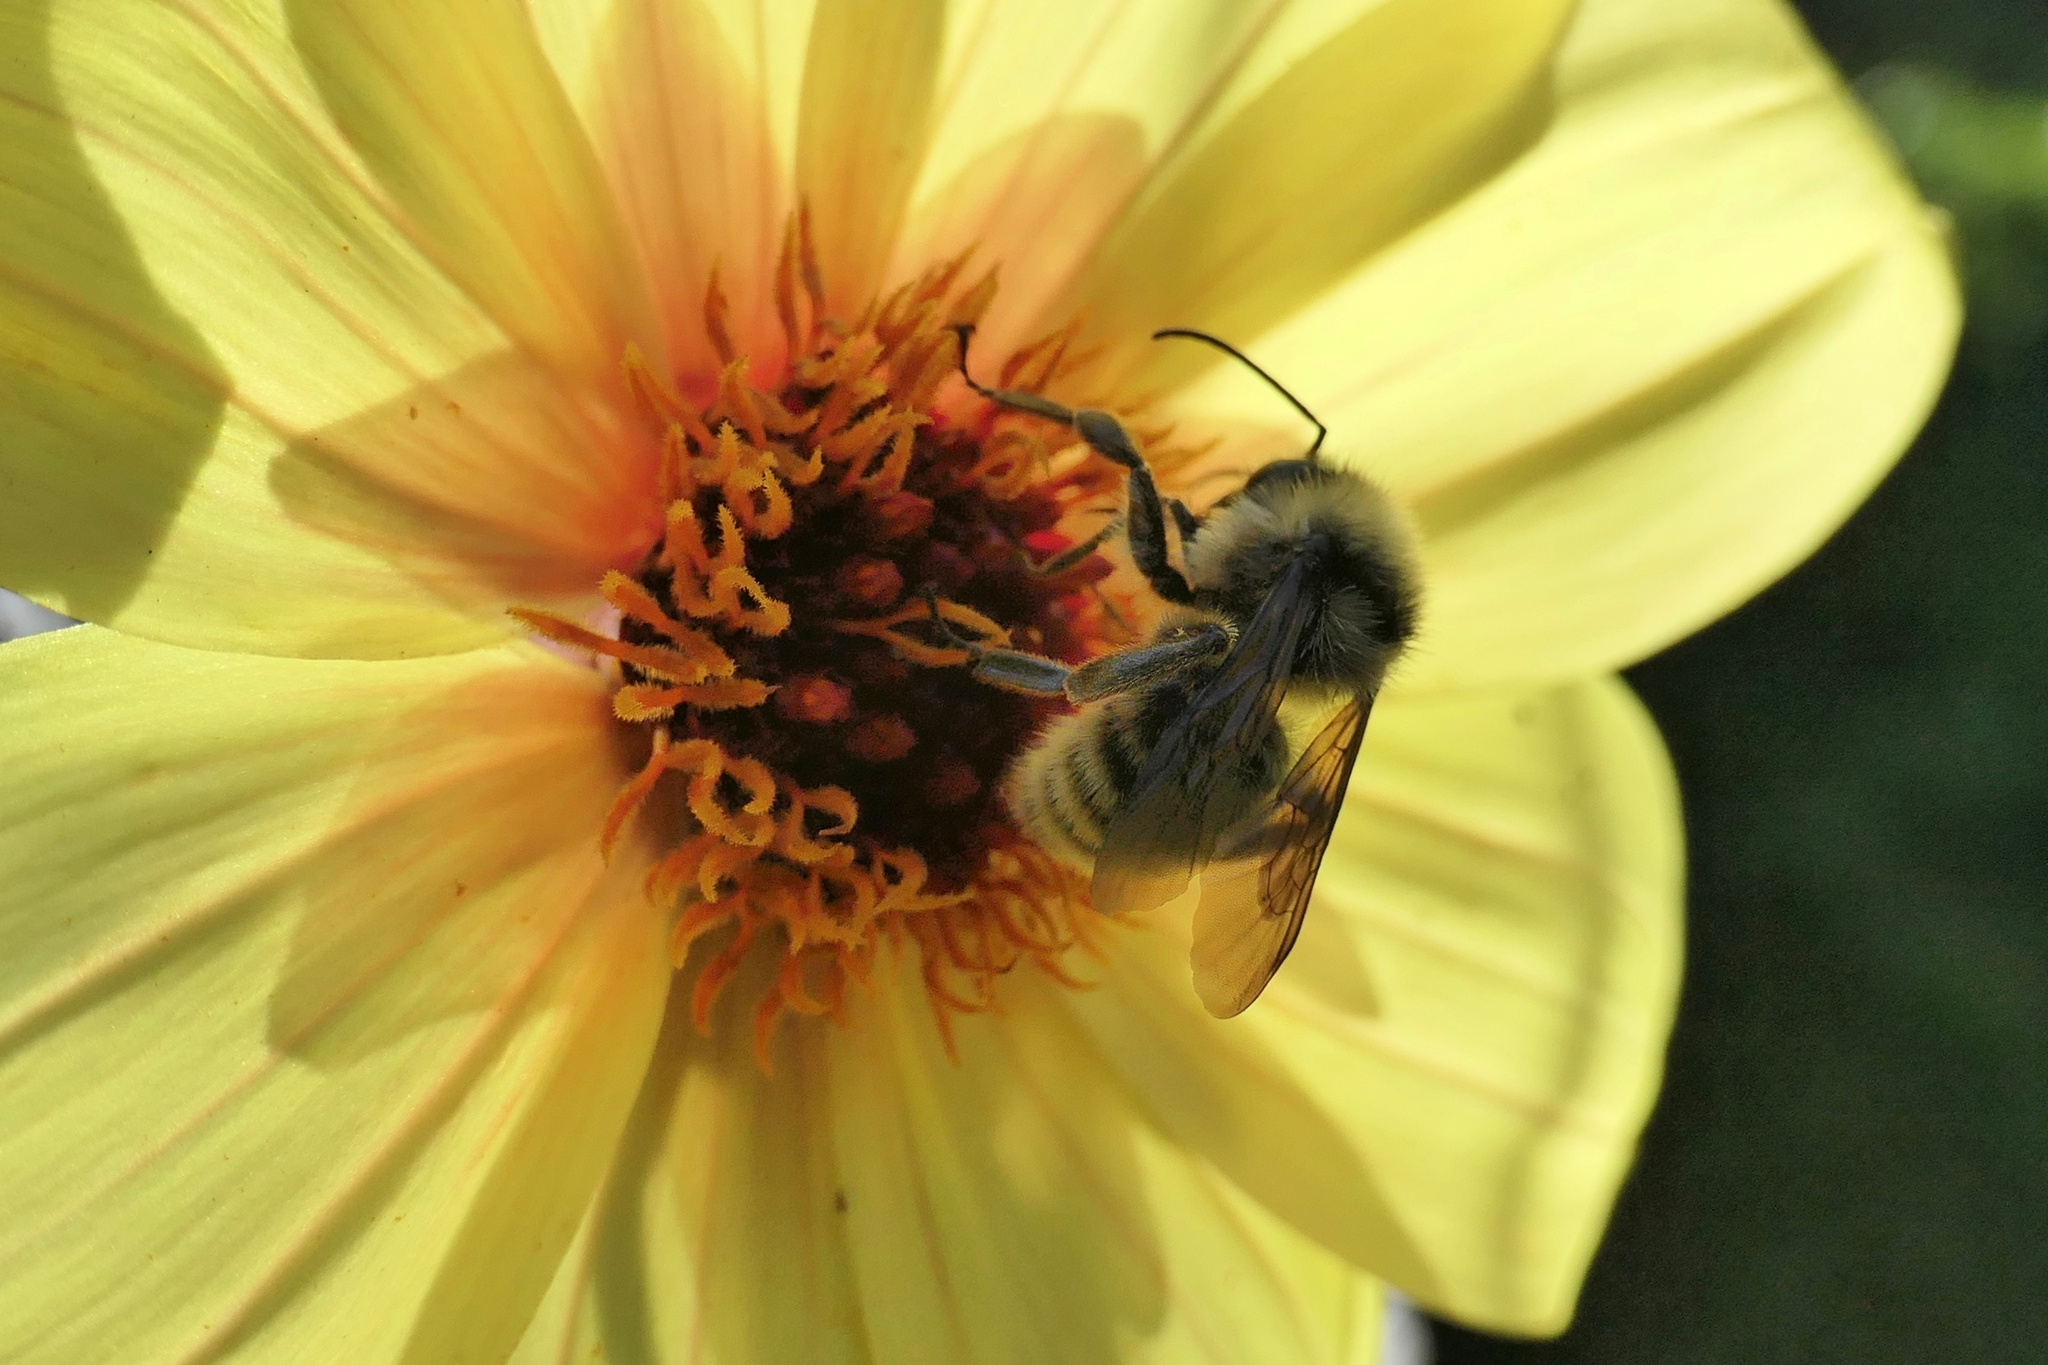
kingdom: Animalia
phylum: Arthropoda
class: Insecta
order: Hymenoptera
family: Apidae
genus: Bombus
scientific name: Bombus californicus
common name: California bumble bee
